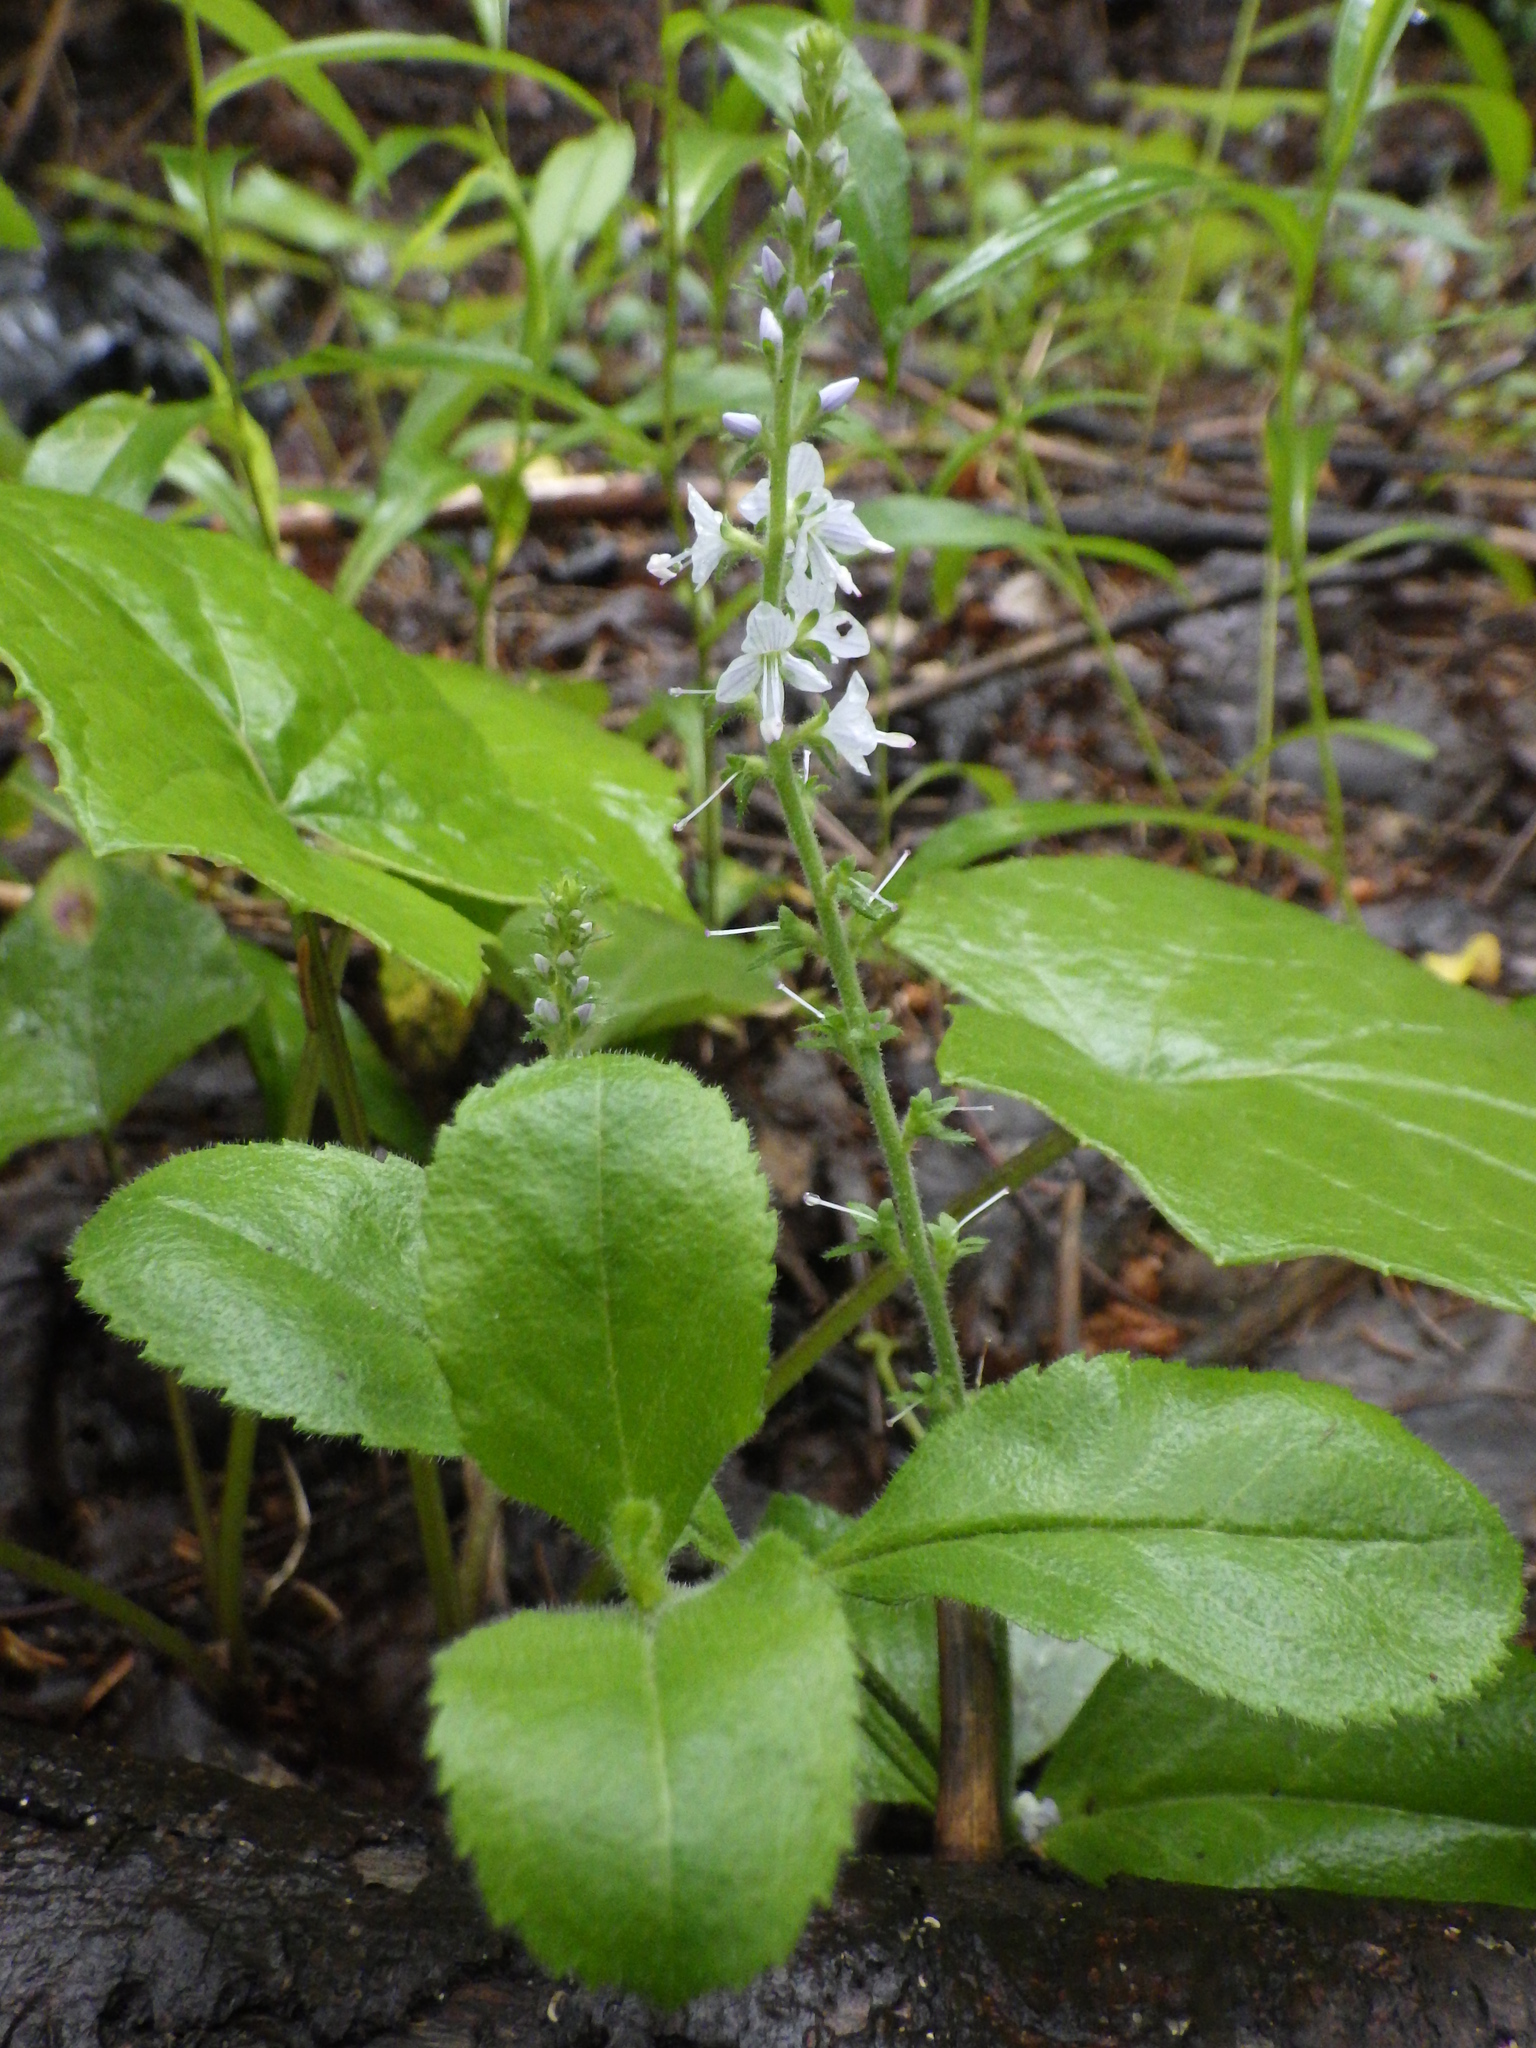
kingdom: Plantae
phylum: Tracheophyta
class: Magnoliopsida
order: Lamiales
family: Plantaginaceae
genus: Veronica
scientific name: Veronica officinalis
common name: Common speedwell
